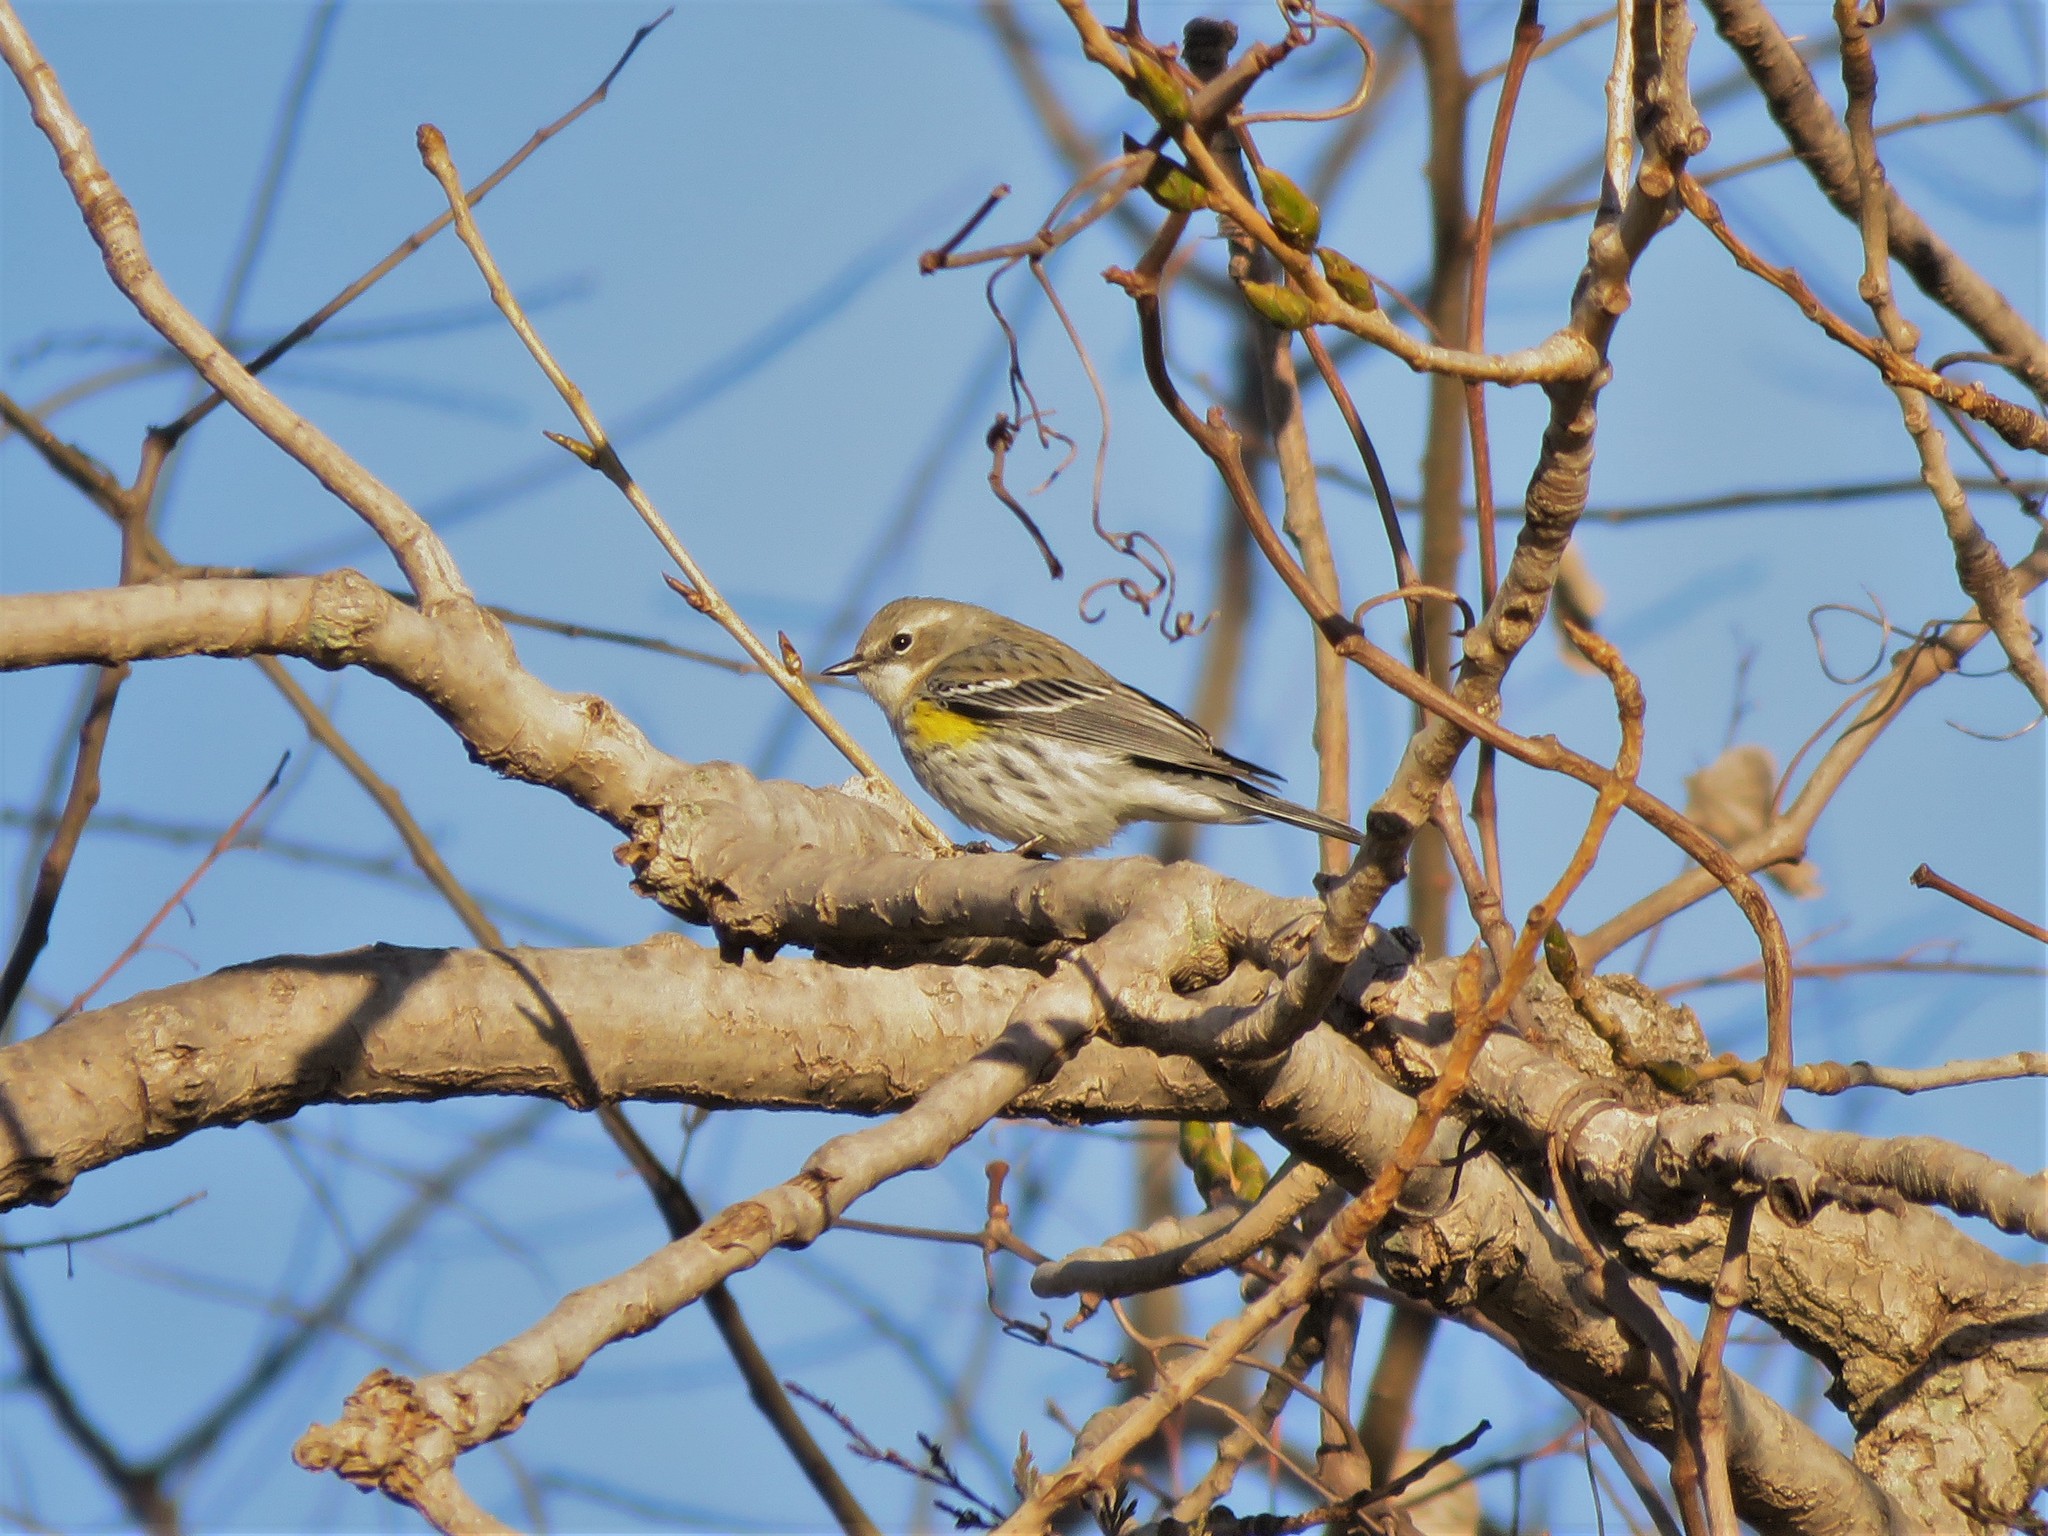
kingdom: Animalia
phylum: Chordata
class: Aves
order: Passeriformes
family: Parulidae
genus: Setophaga
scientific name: Setophaga coronata
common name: Myrtle warbler
